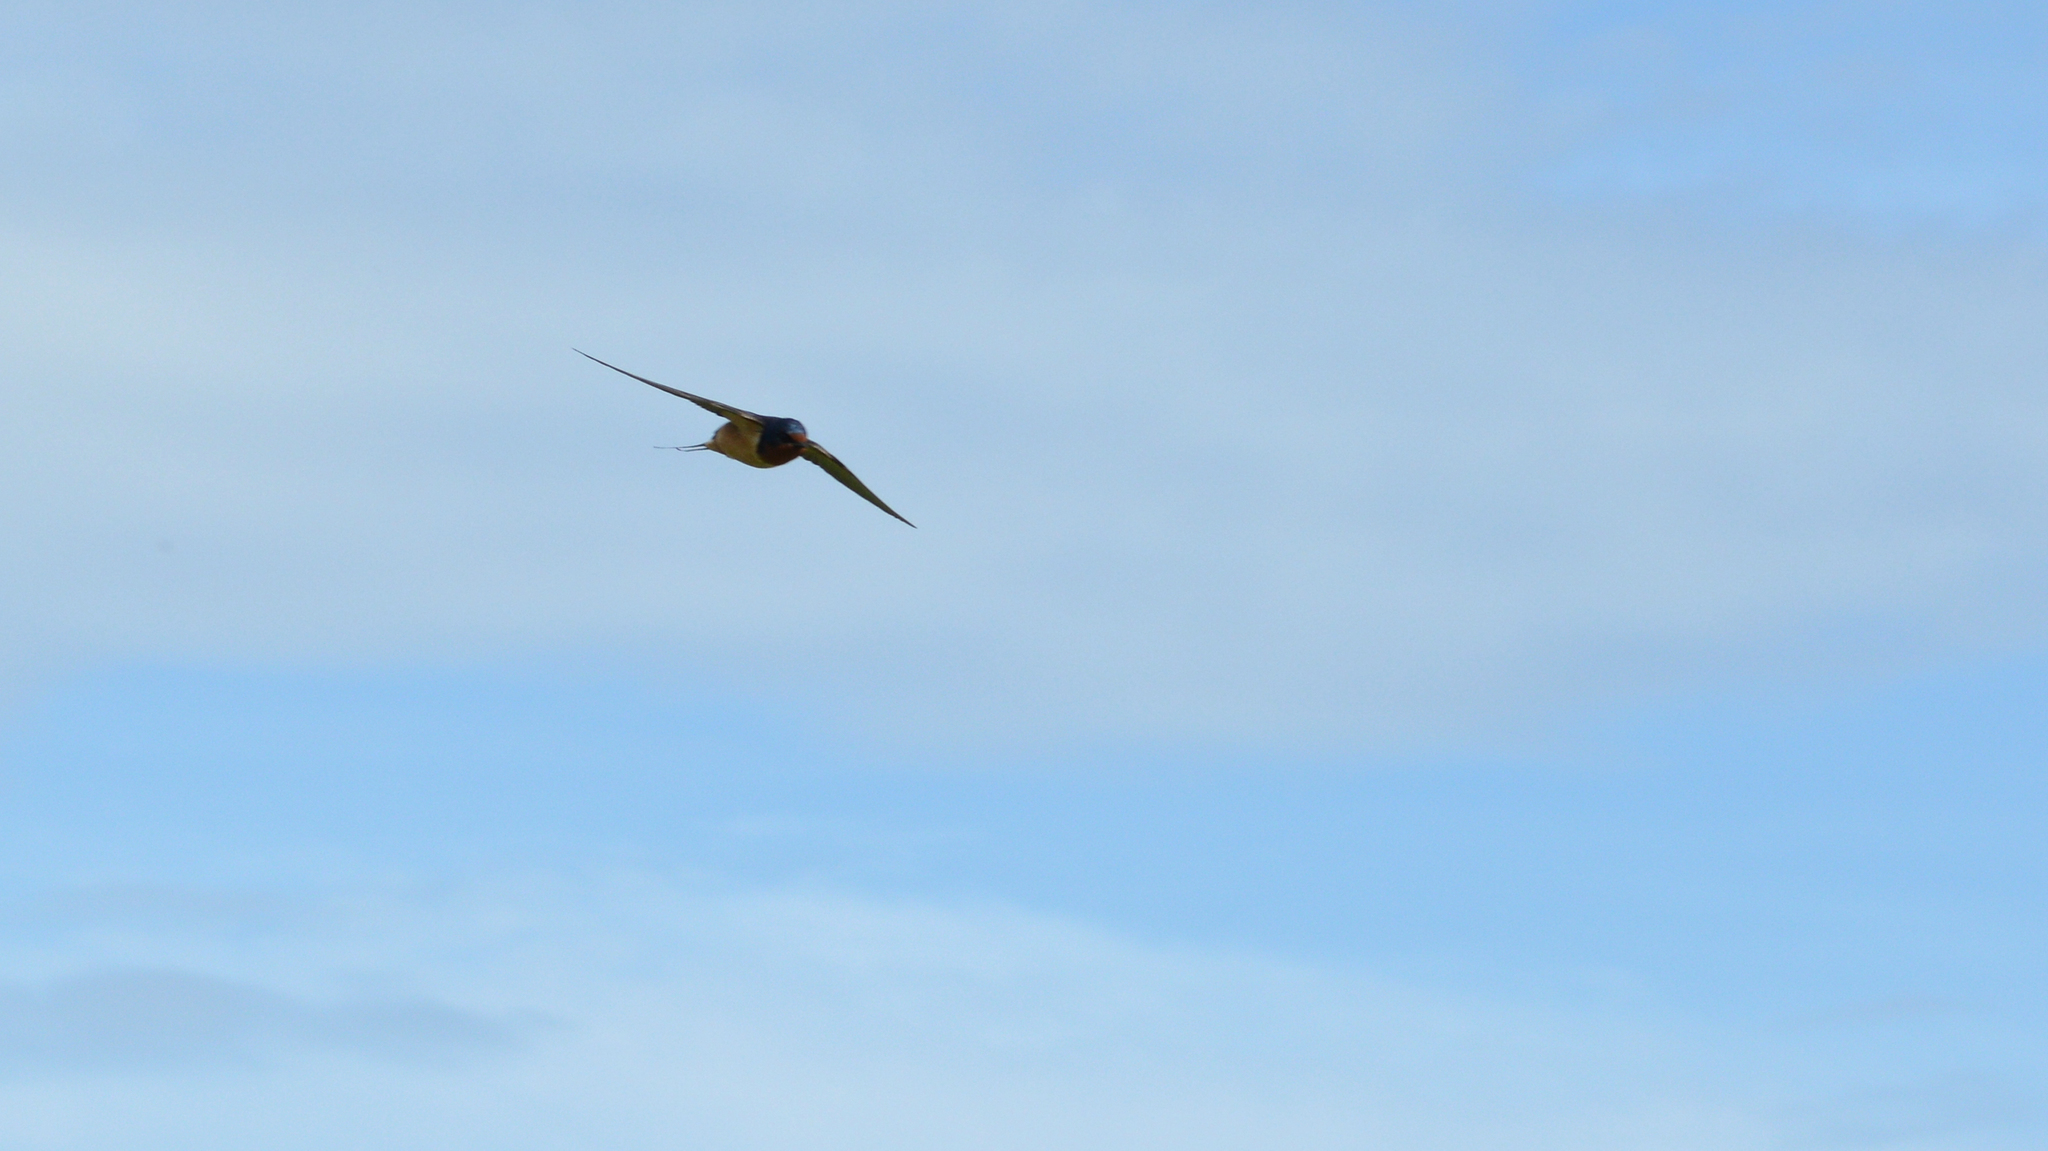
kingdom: Animalia
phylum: Chordata
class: Aves
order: Passeriformes
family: Hirundinidae
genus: Hirundo
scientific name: Hirundo rustica
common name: Barn swallow
